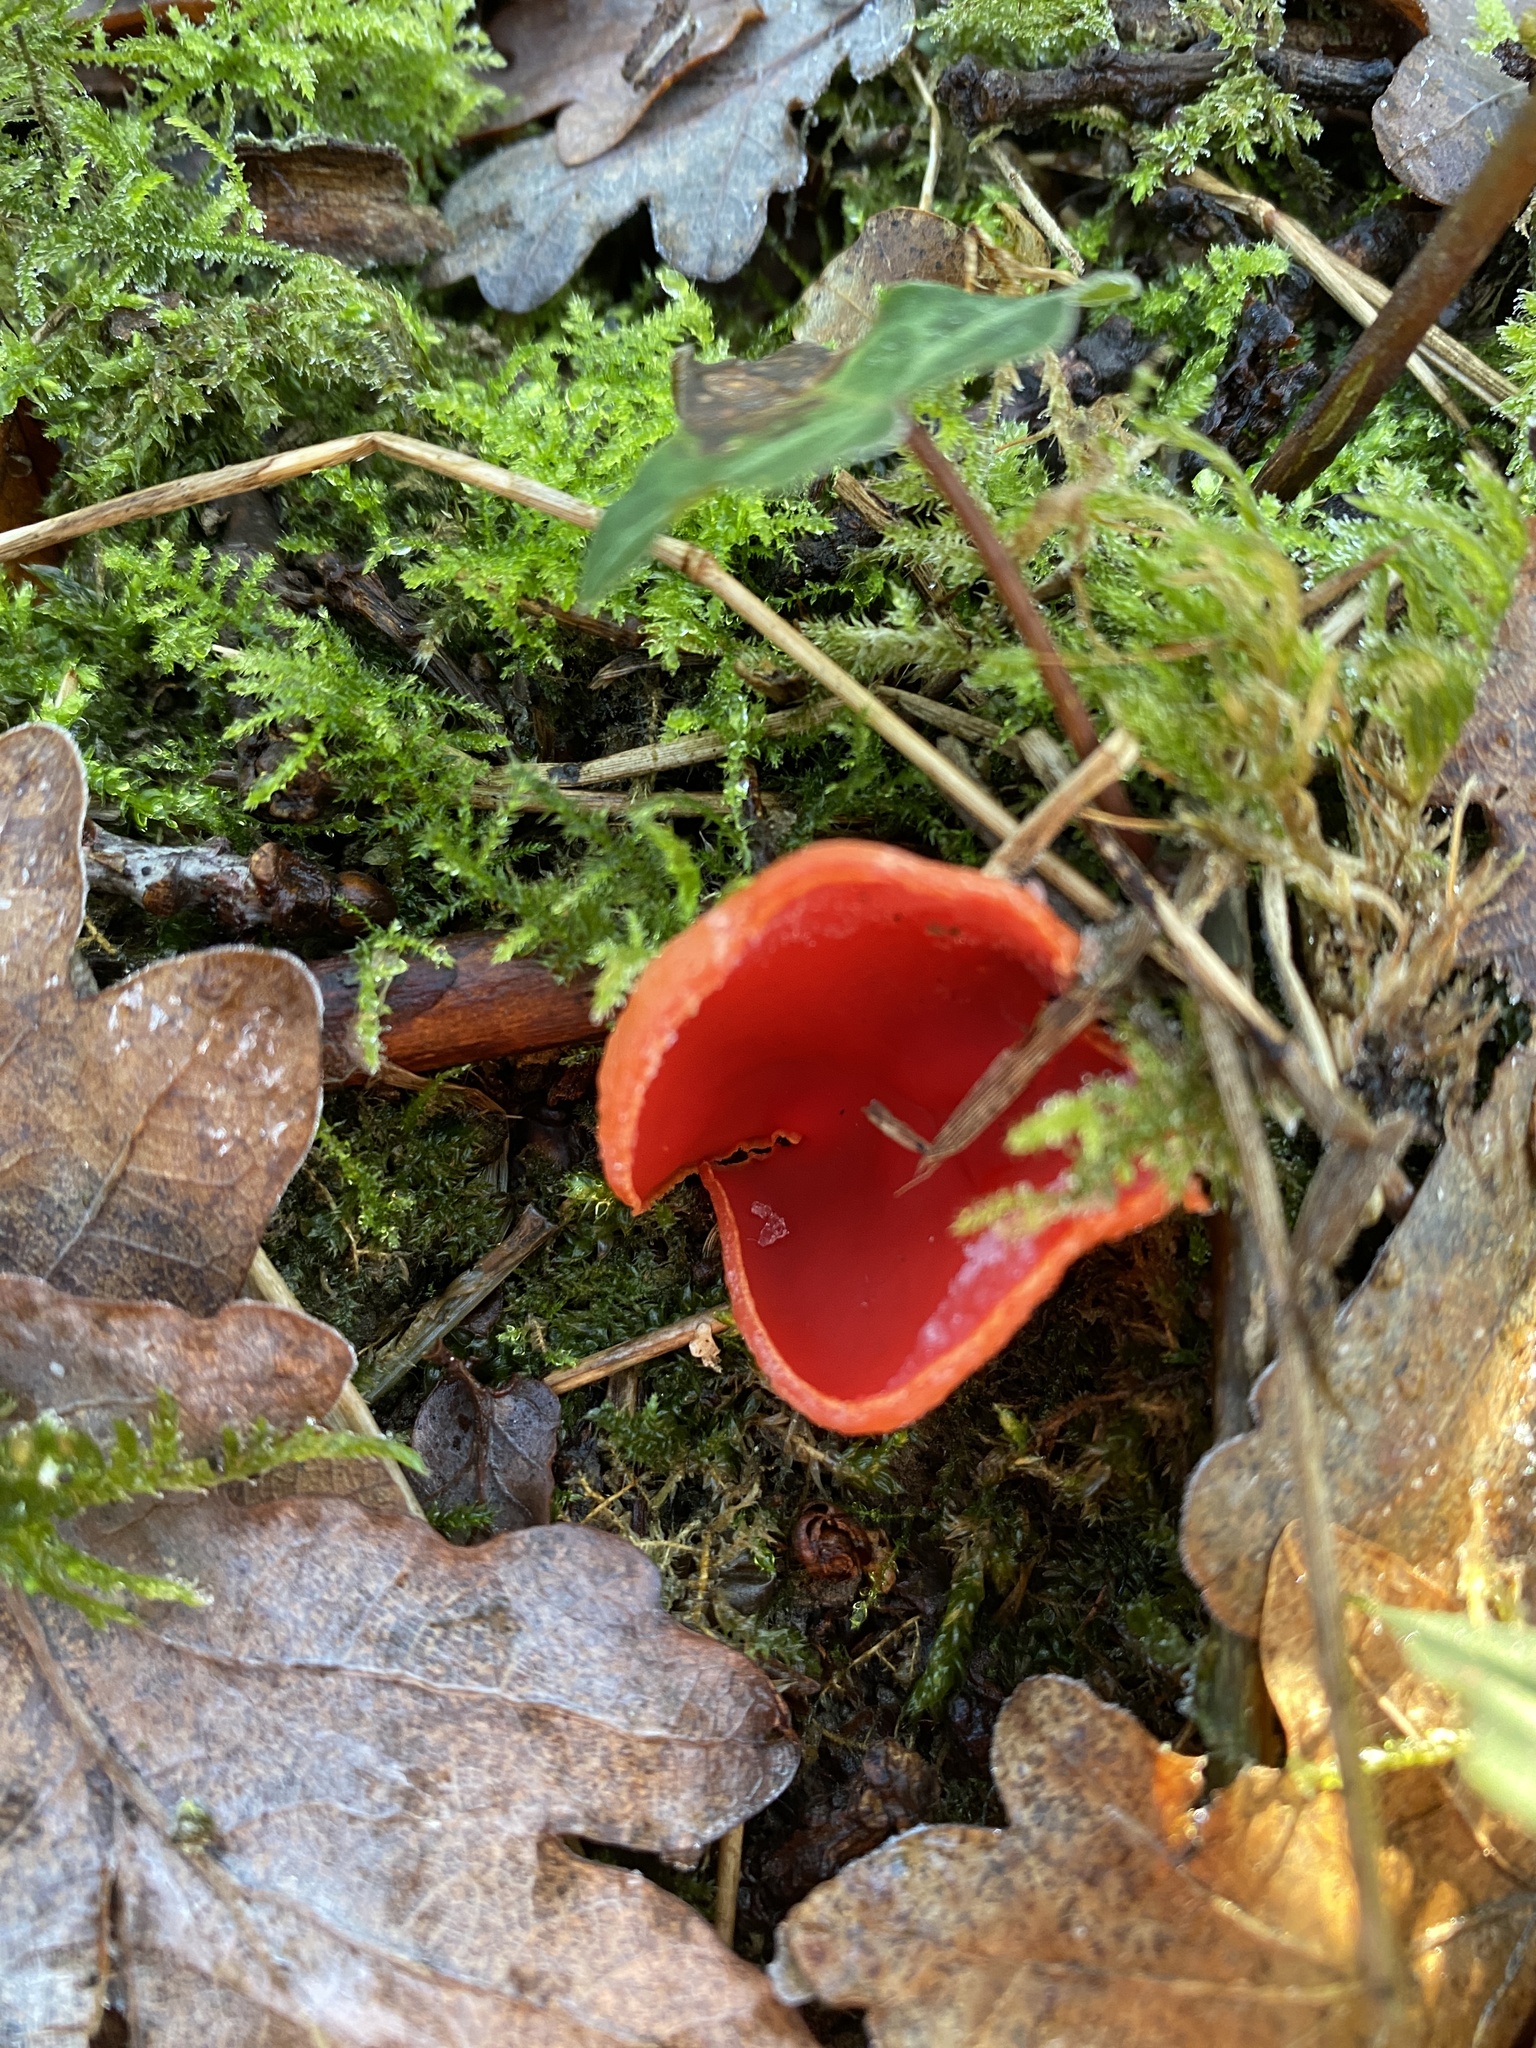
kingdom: Fungi
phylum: Ascomycota
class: Pezizomycetes
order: Pezizales
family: Sarcoscyphaceae
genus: Sarcoscypha
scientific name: Sarcoscypha
